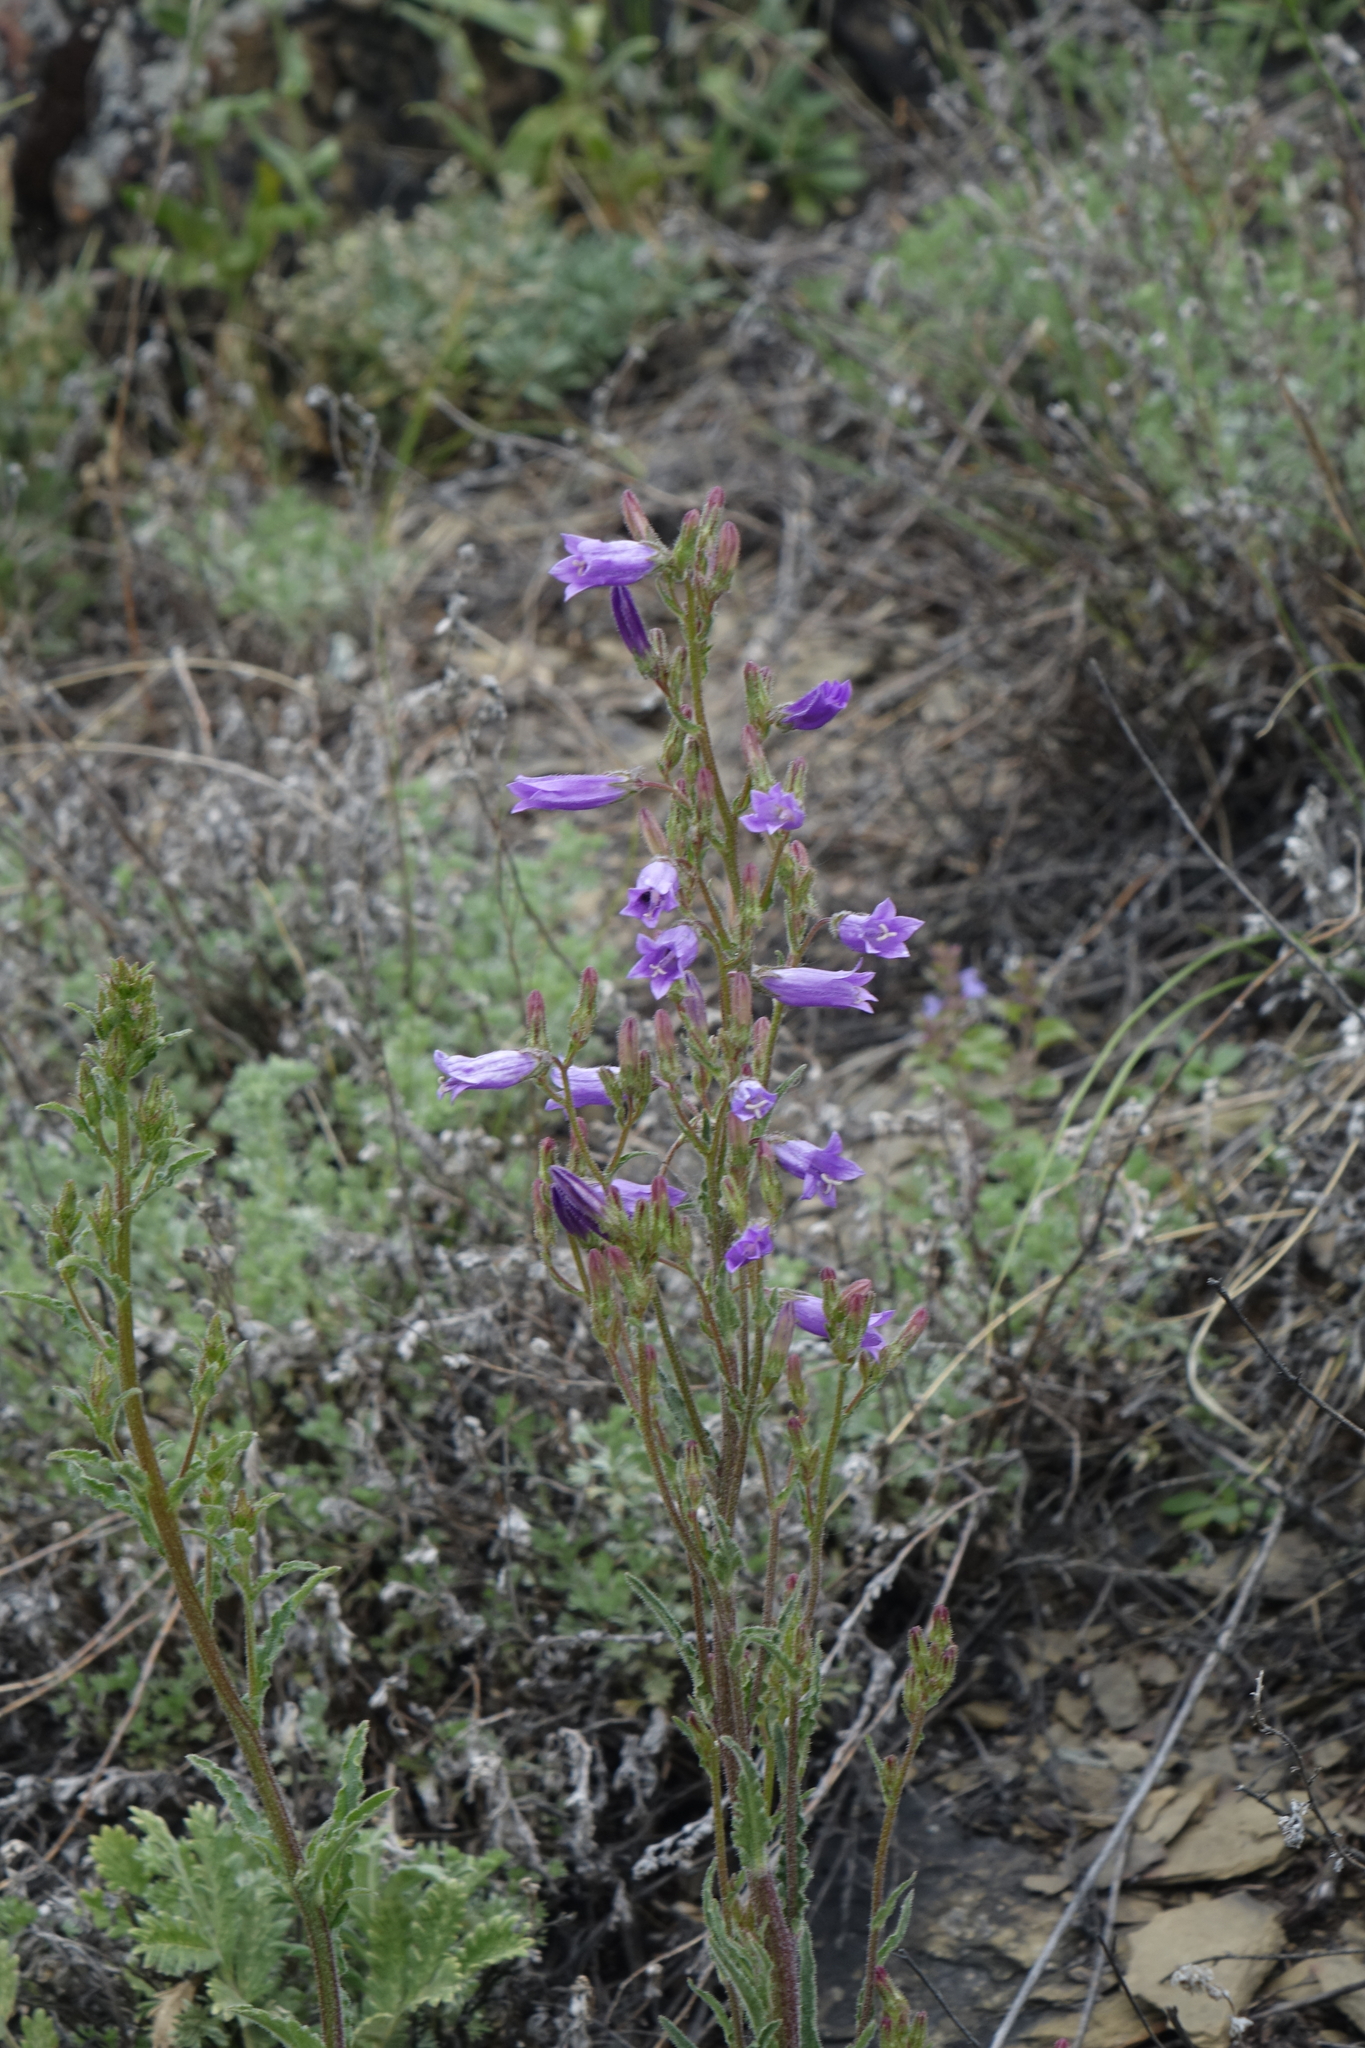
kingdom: Plantae
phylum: Tracheophyta
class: Magnoliopsida
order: Asterales
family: Campanulaceae
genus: Campanula
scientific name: Campanula sibirica
